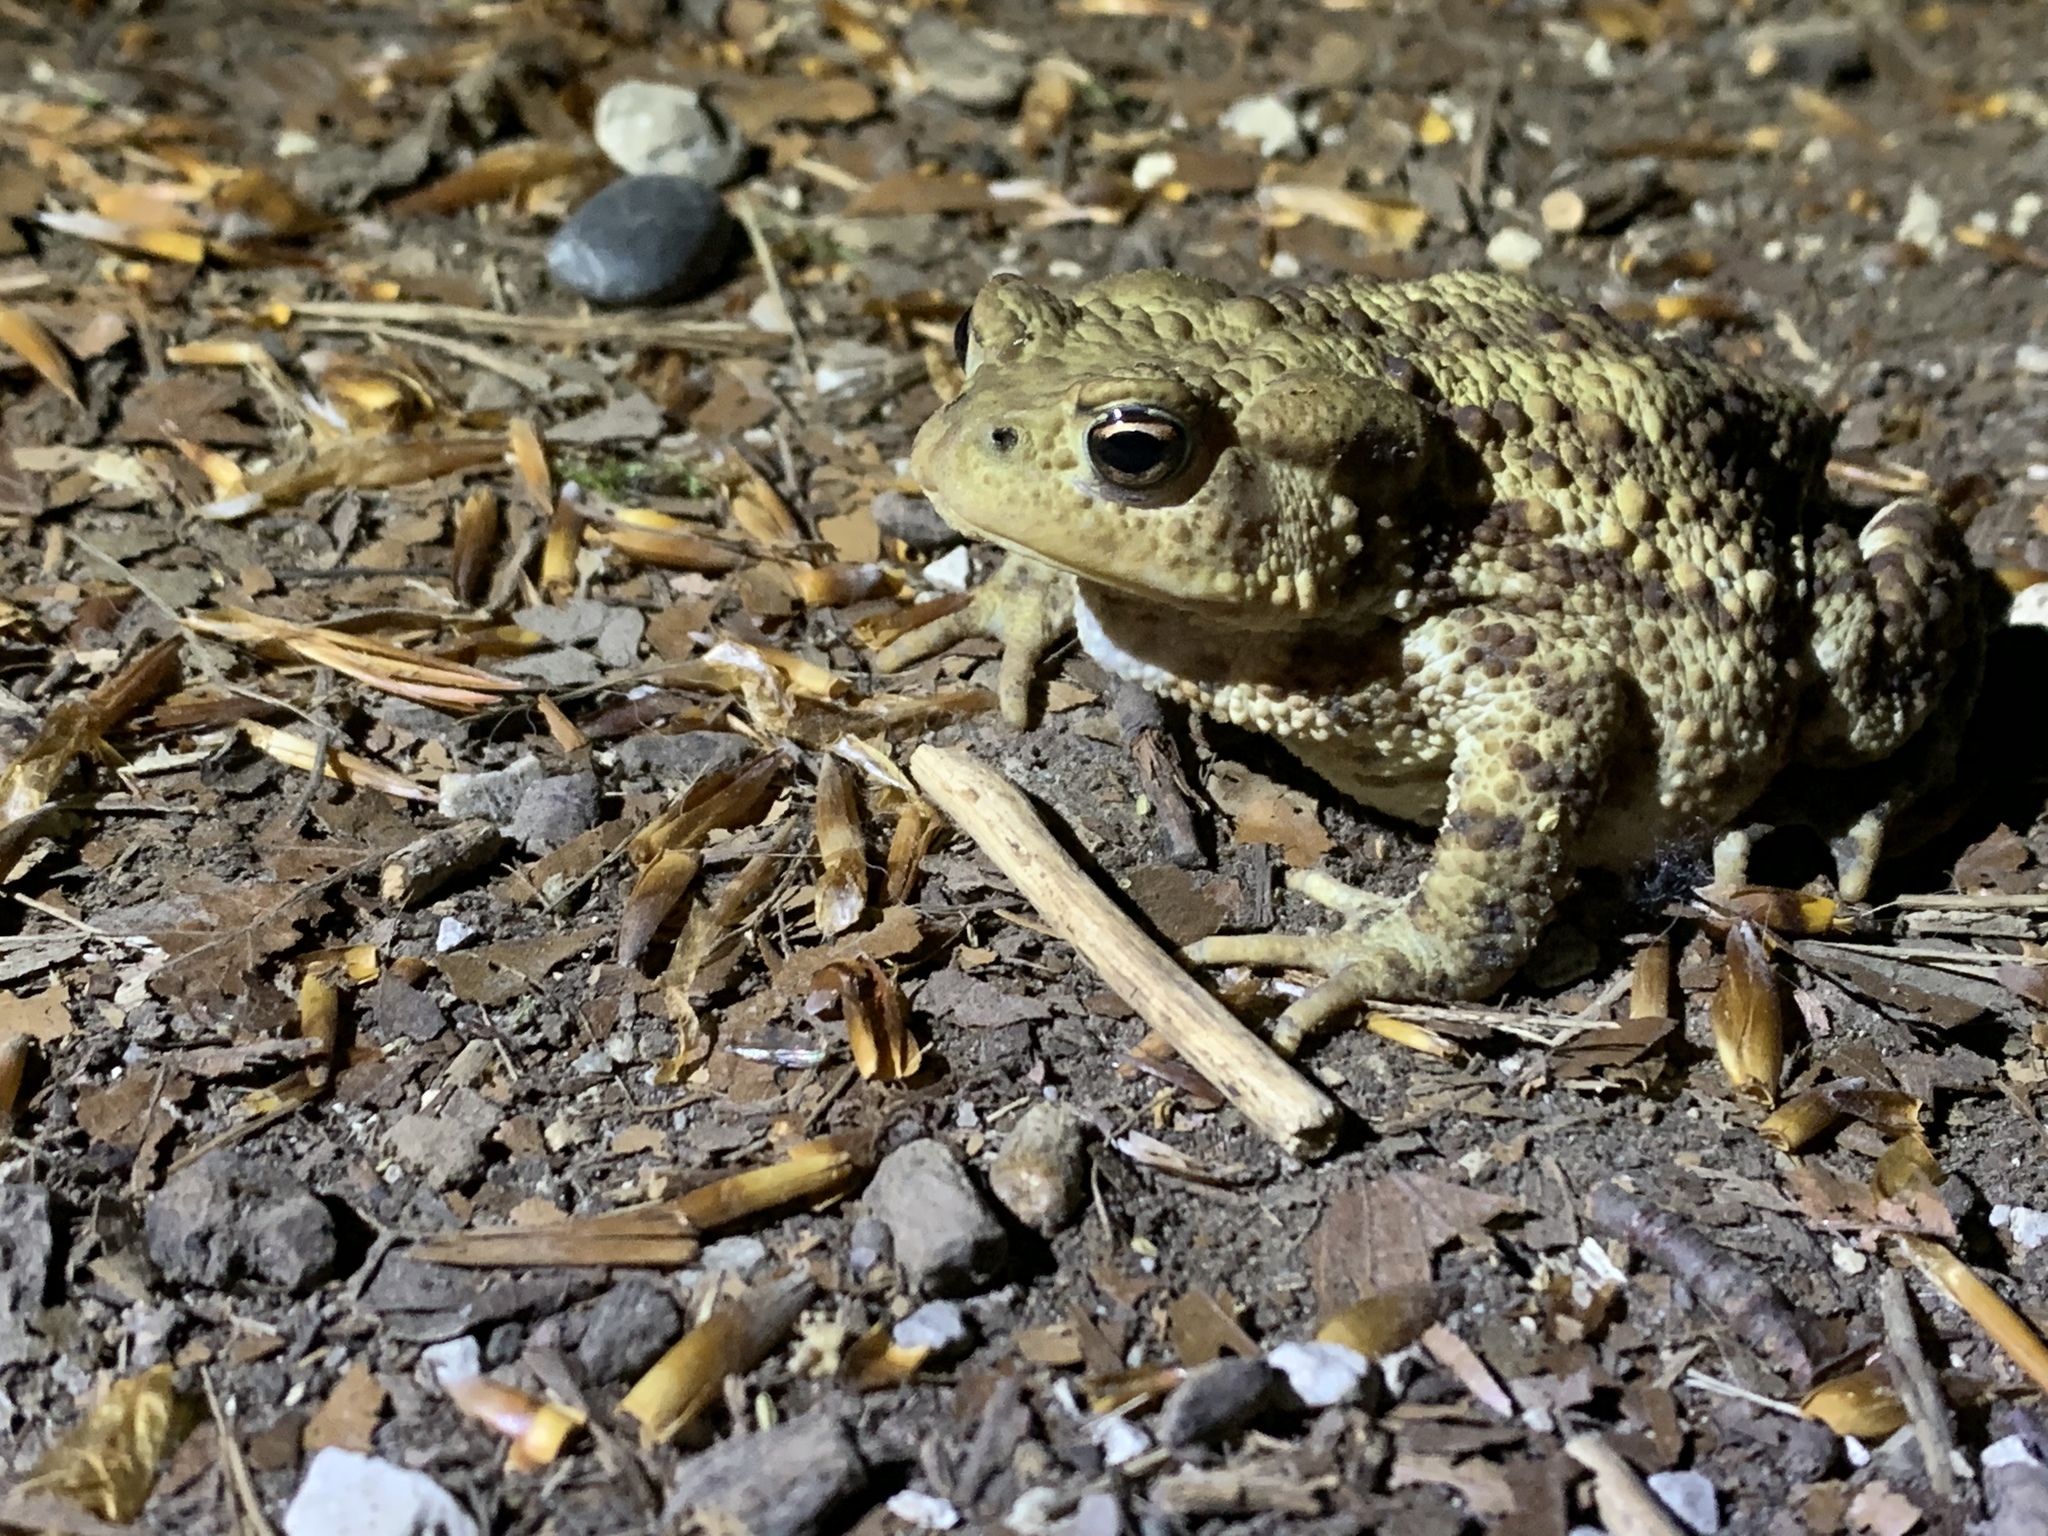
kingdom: Animalia
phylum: Chordata
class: Amphibia
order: Anura
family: Bufonidae
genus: Bufo
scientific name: Bufo bufo
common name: Common toad
